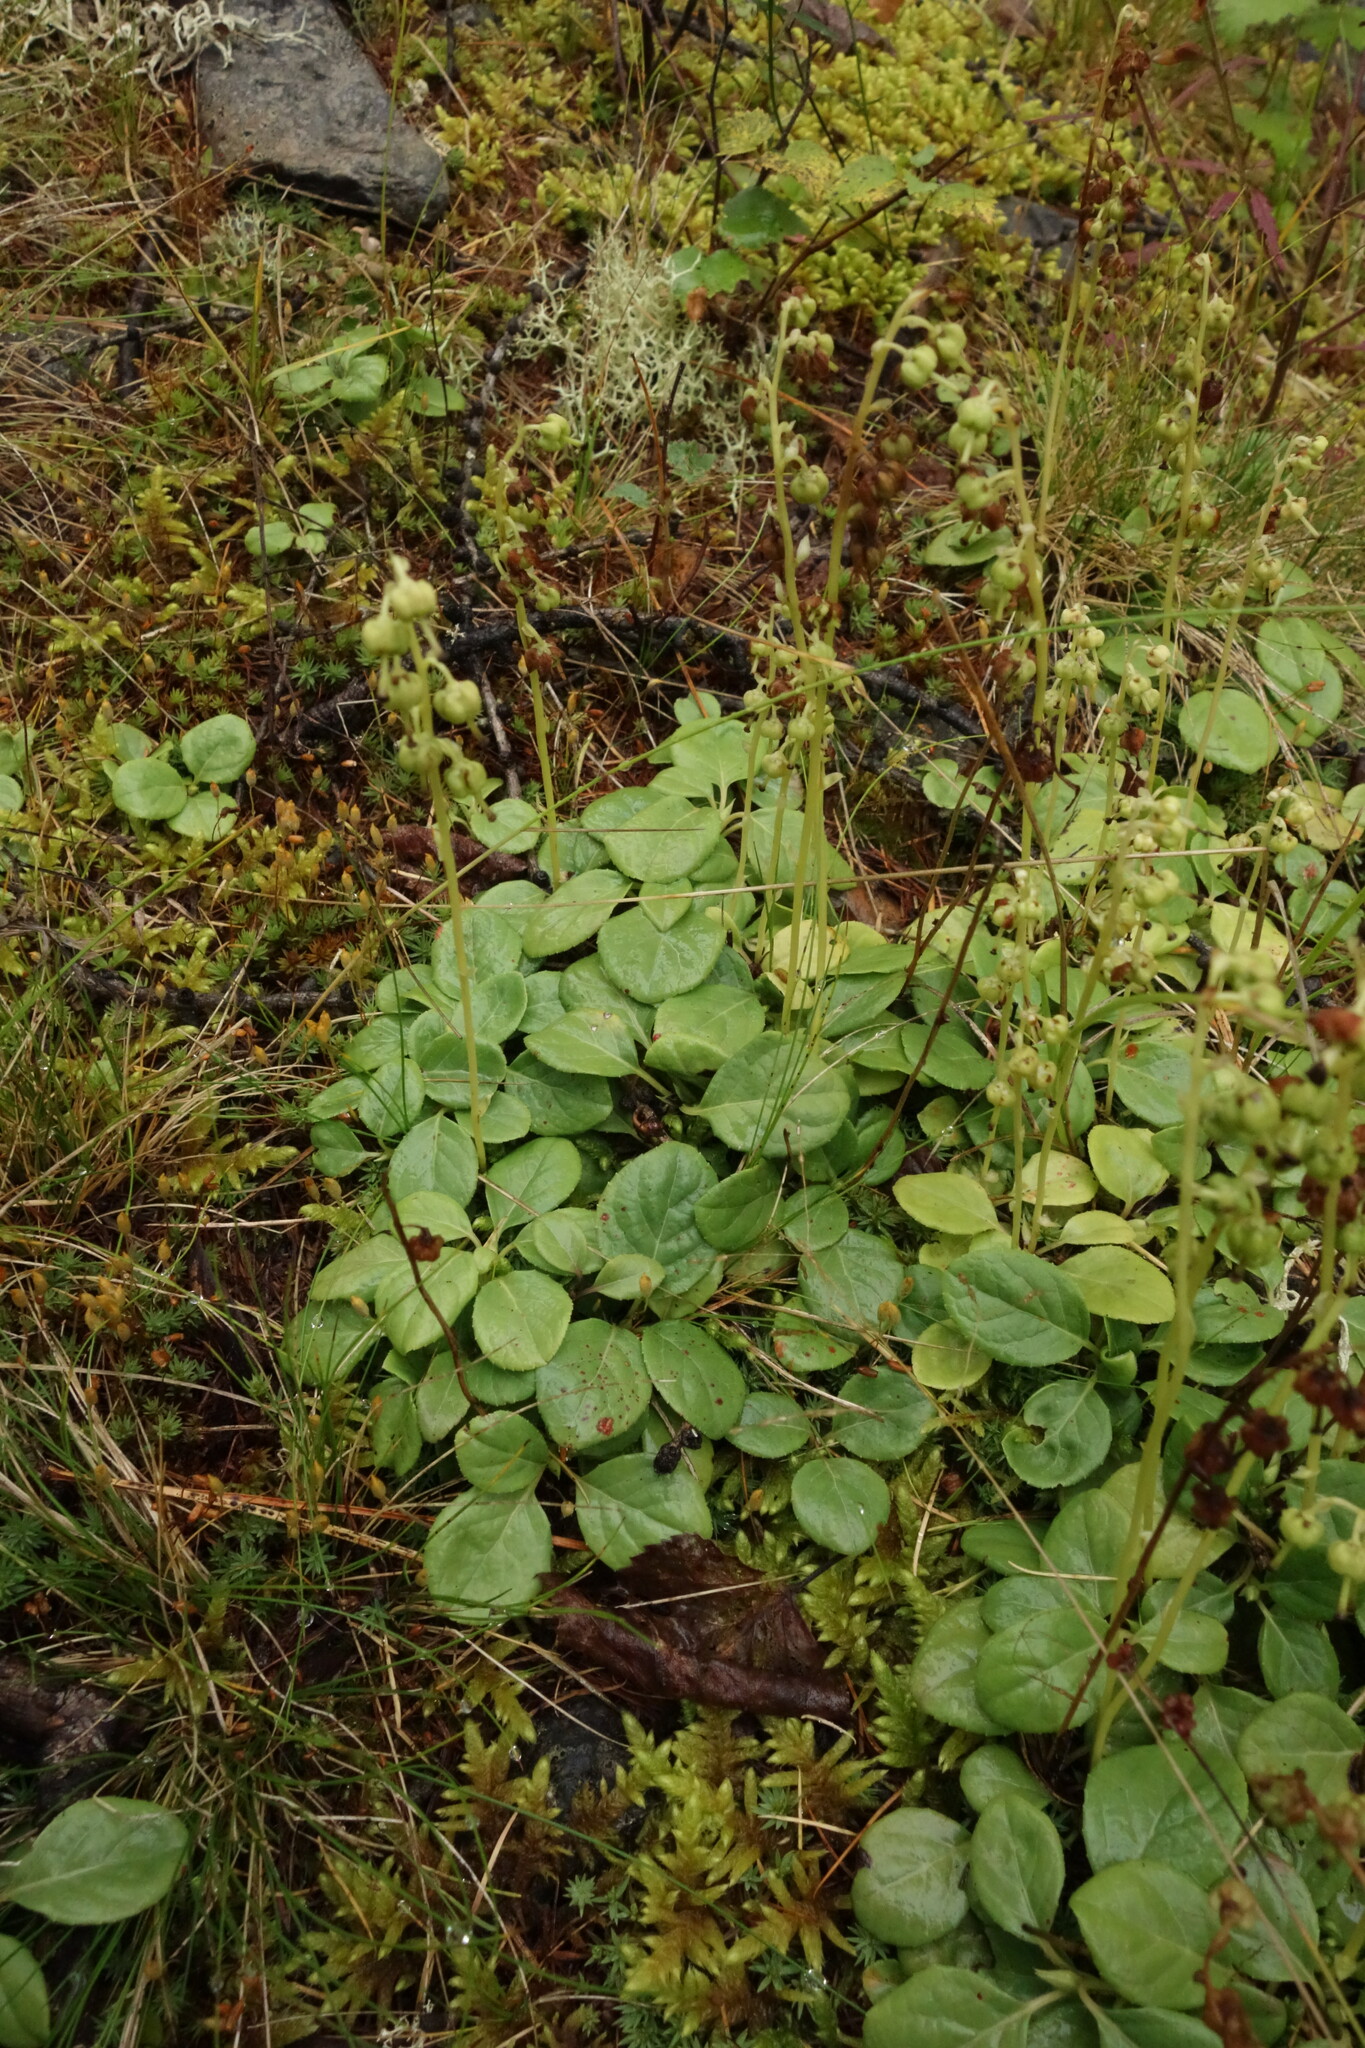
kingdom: Plantae
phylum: Tracheophyta
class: Magnoliopsida
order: Ericales
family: Ericaceae
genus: Orthilia
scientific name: Orthilia secunda
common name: One-sided orthilia
